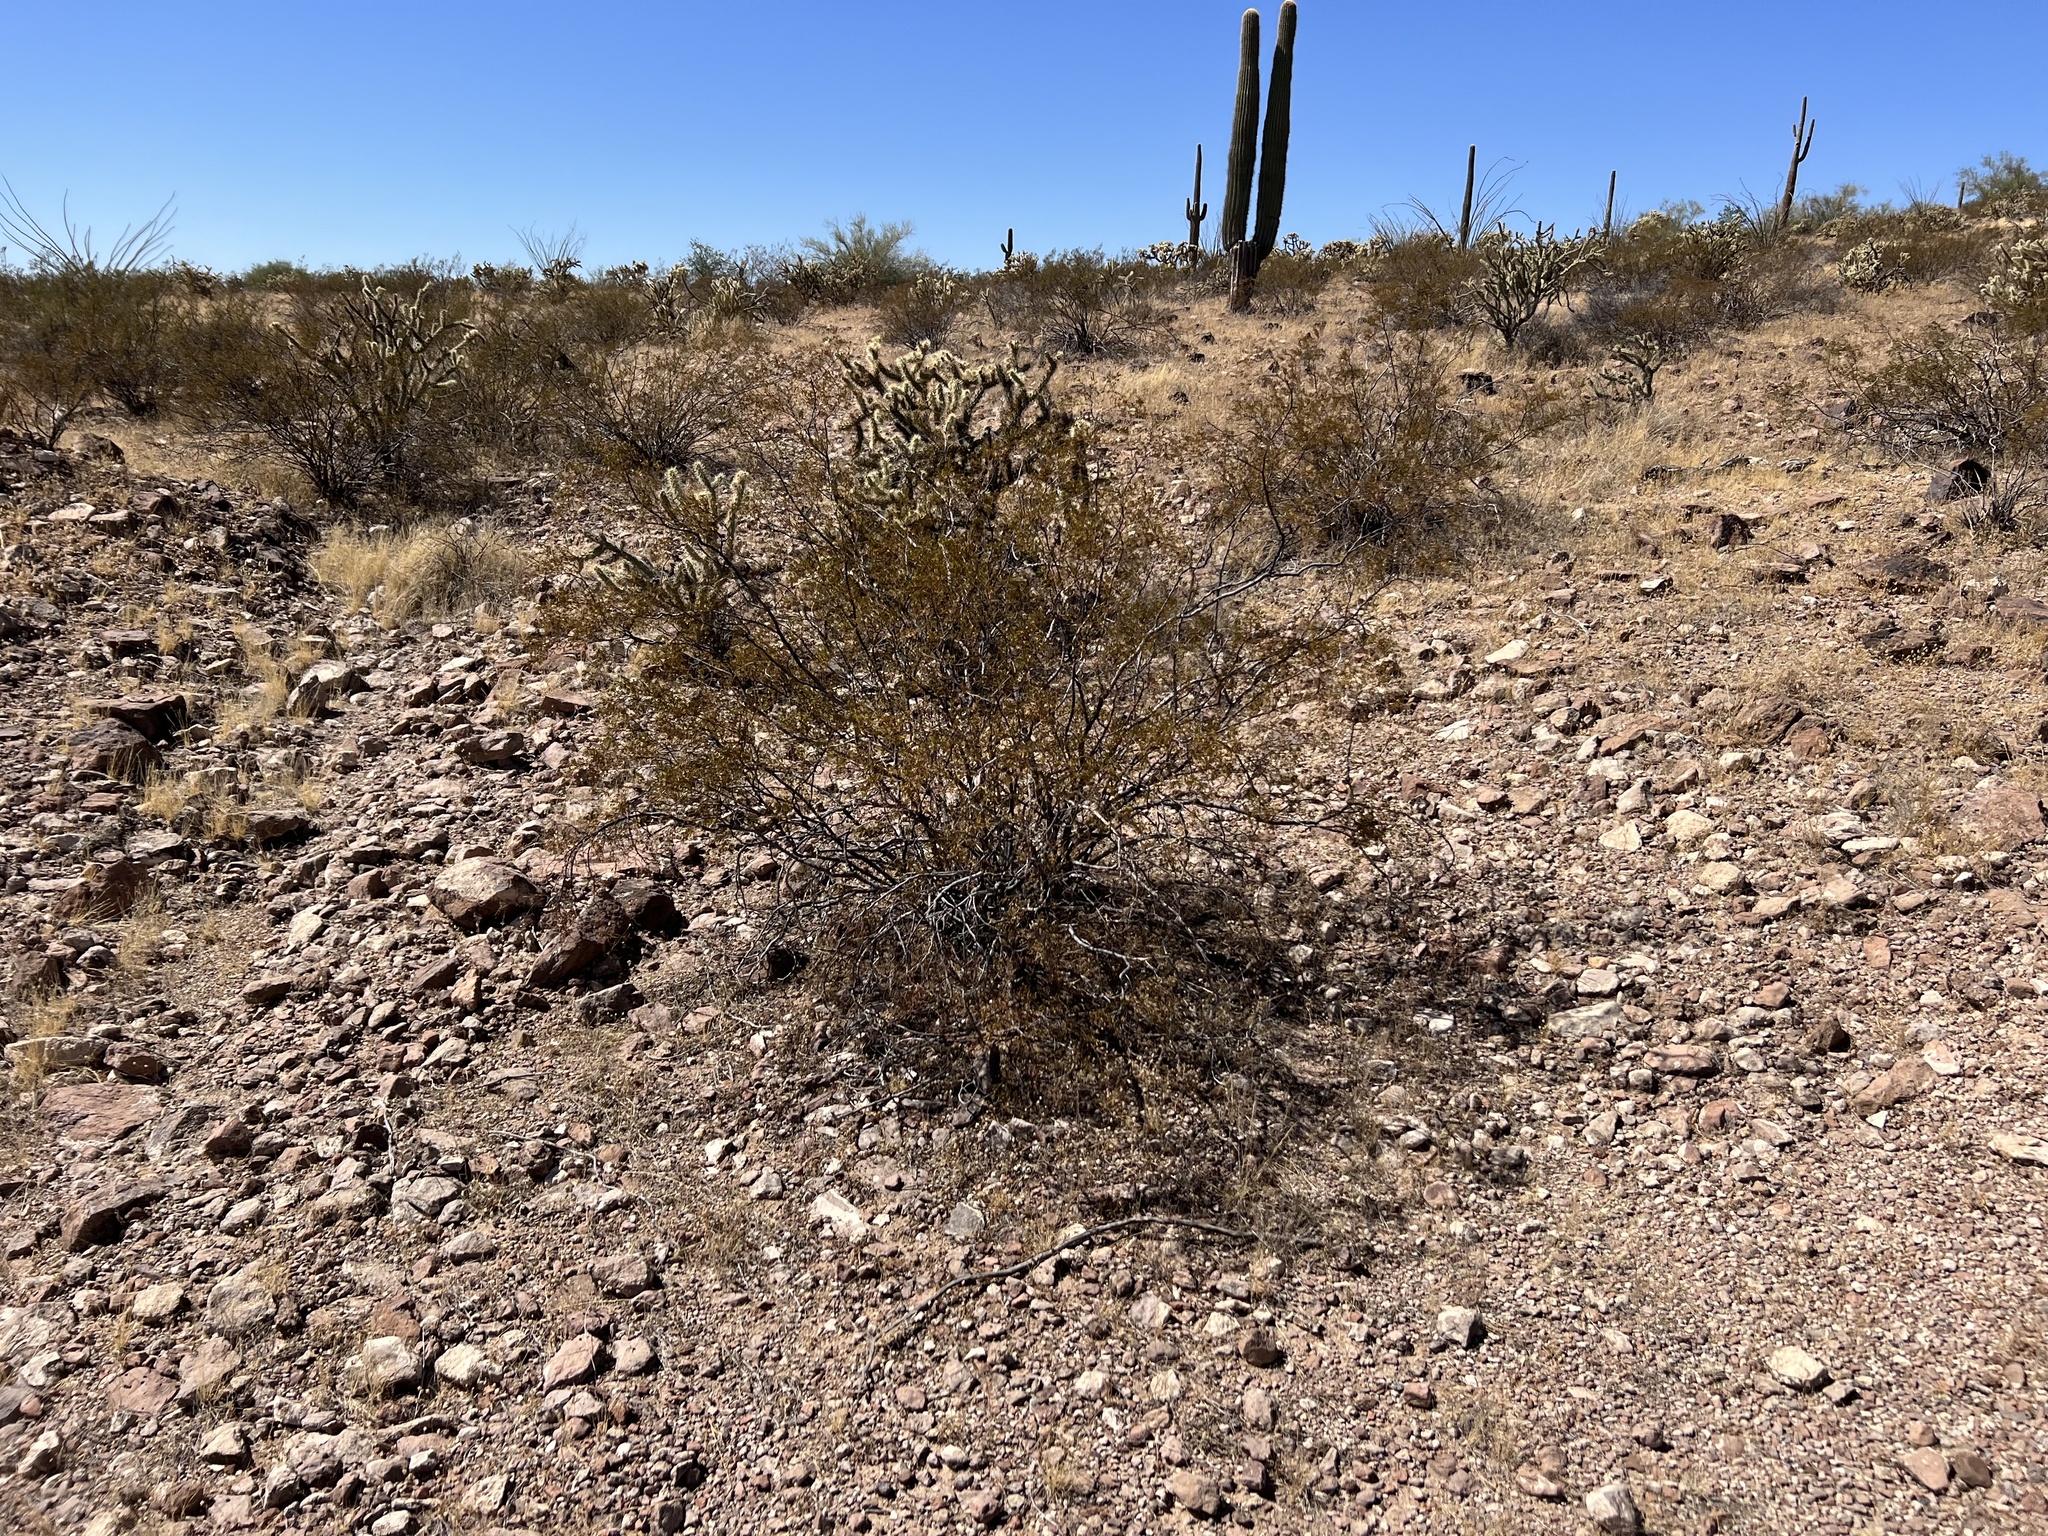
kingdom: Plantae
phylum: Tracheophyta
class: Magnoliopsida
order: Zygophyllales
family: Zygophyllaceae
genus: Larrea
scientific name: Larrea tridentata
